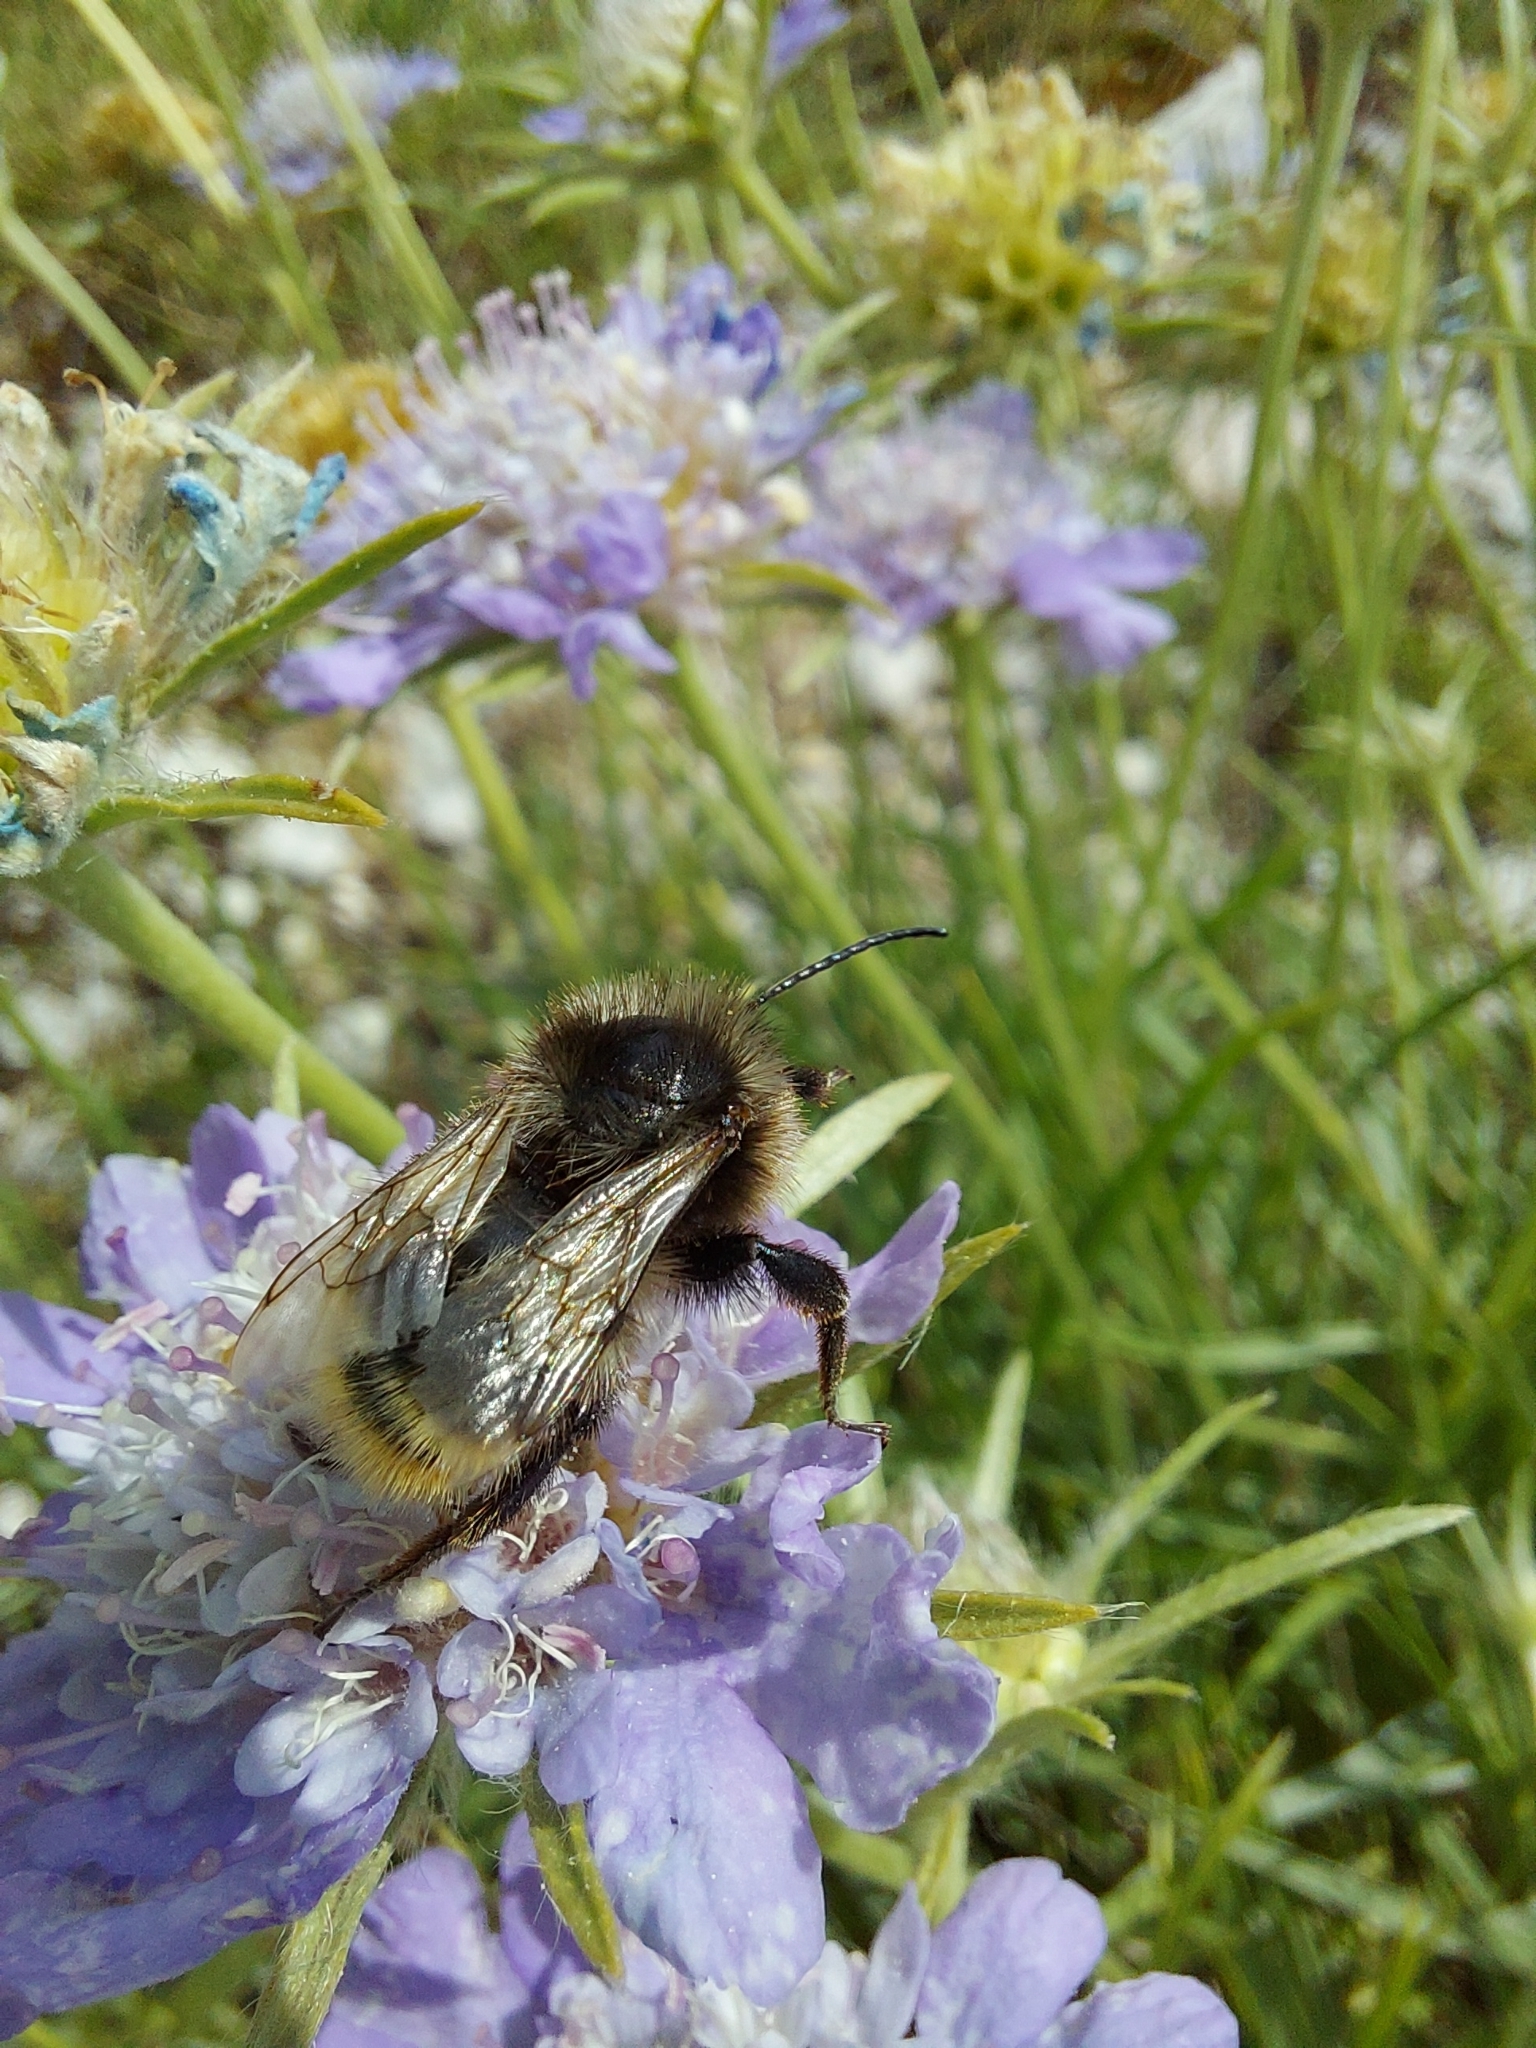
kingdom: Animalia
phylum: Arthropoda
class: Insecta
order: Hymenoptera
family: Apidae
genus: Bombus
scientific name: Bombus rupestris
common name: Hill cuckoo-bee
